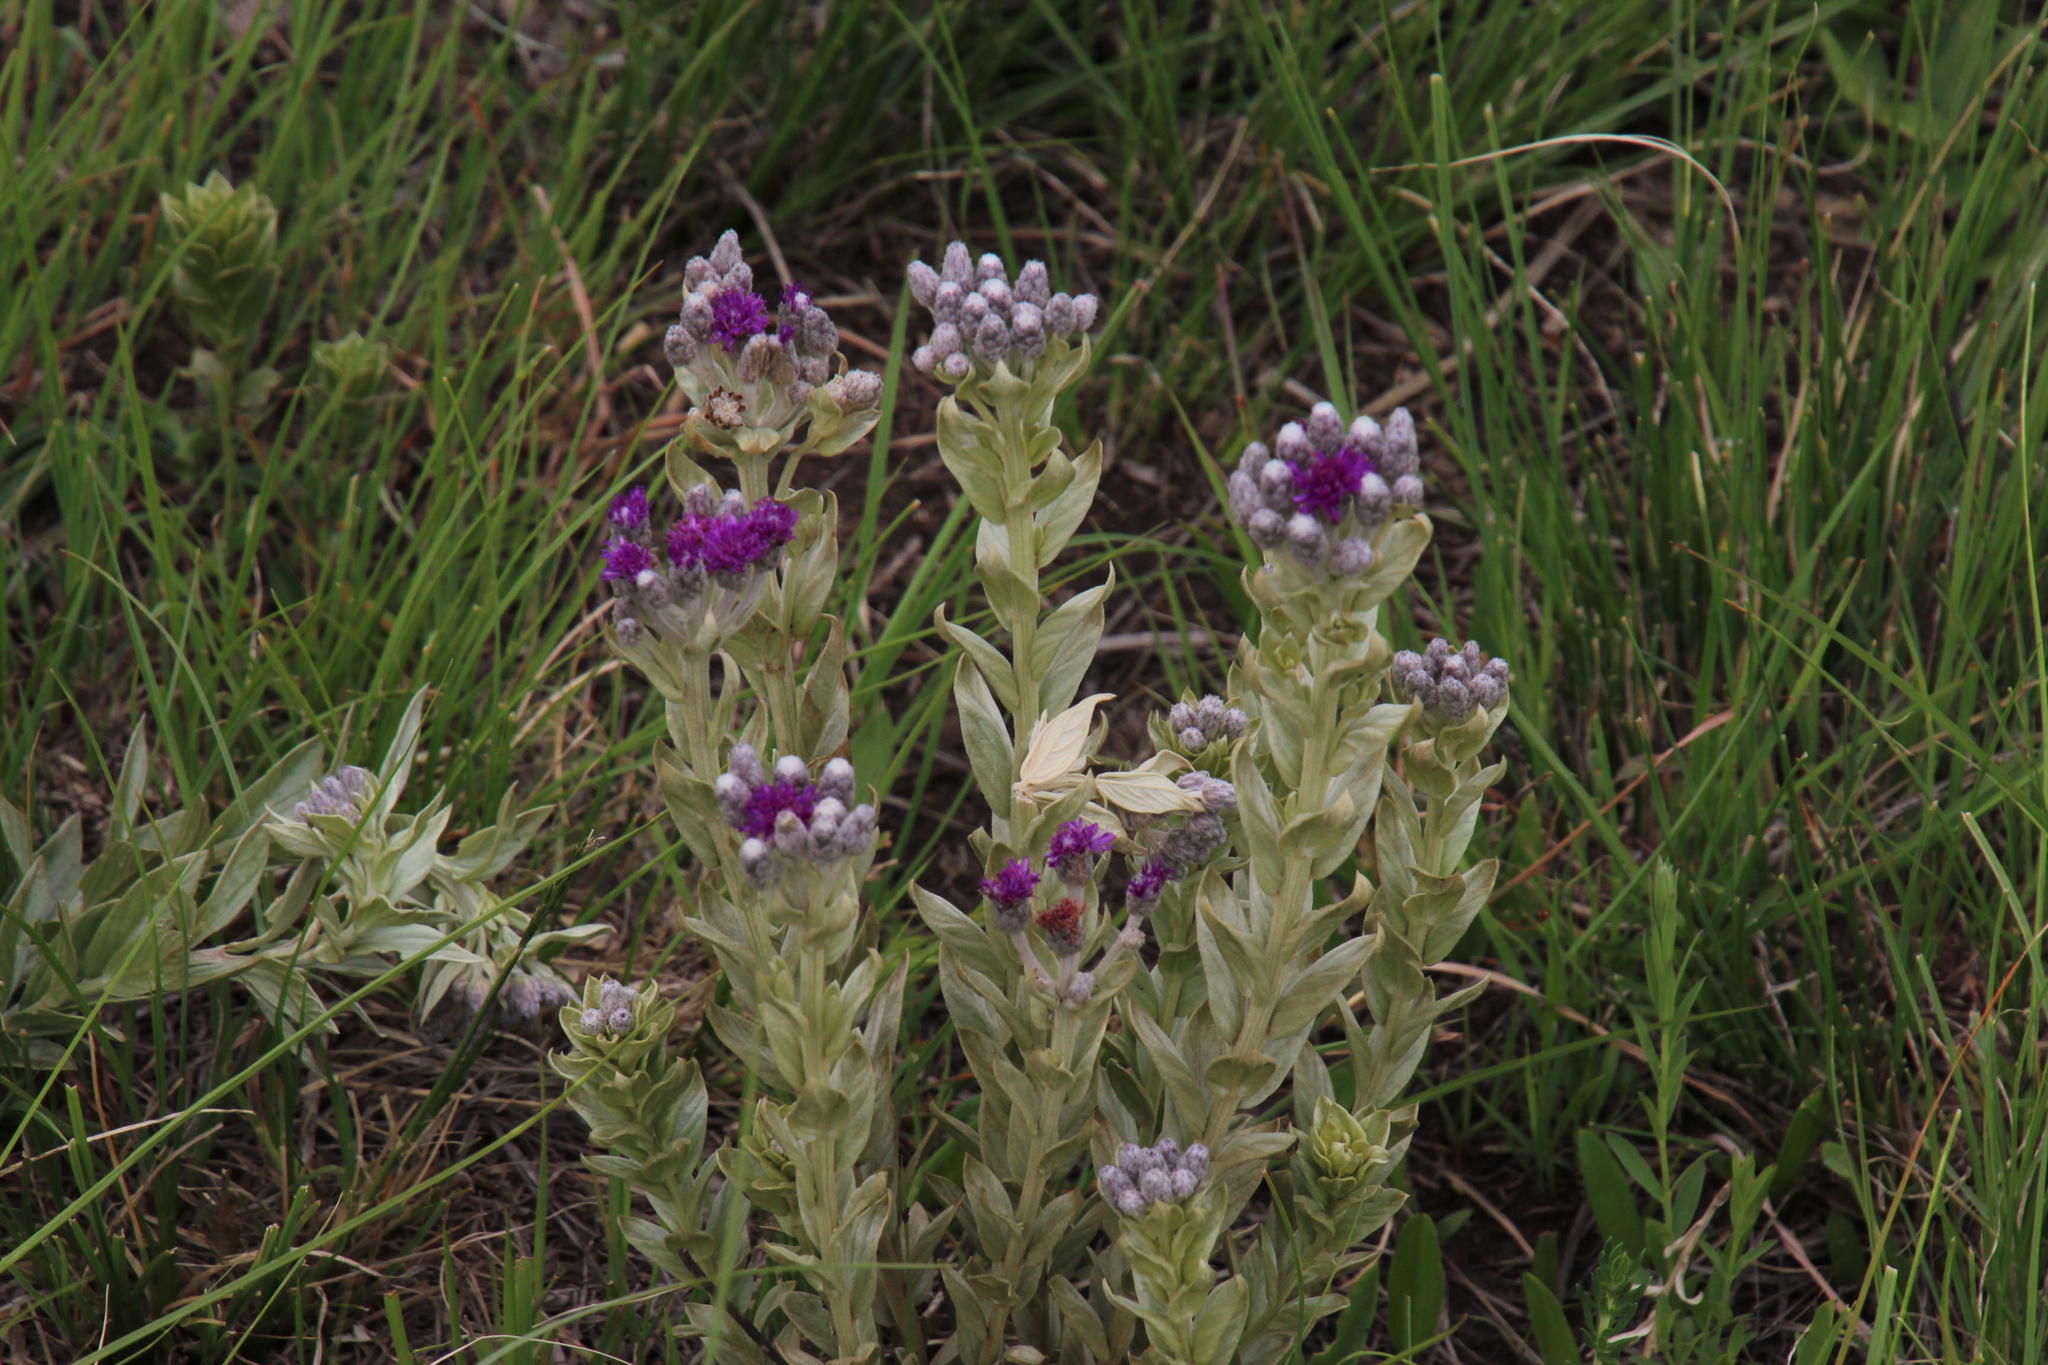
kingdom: Plantae
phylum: Tracheophyta
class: Magnoliopsida
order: Asterales
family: Asteraceae
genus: Hilliardiella
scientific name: Hilliardiella aristata
